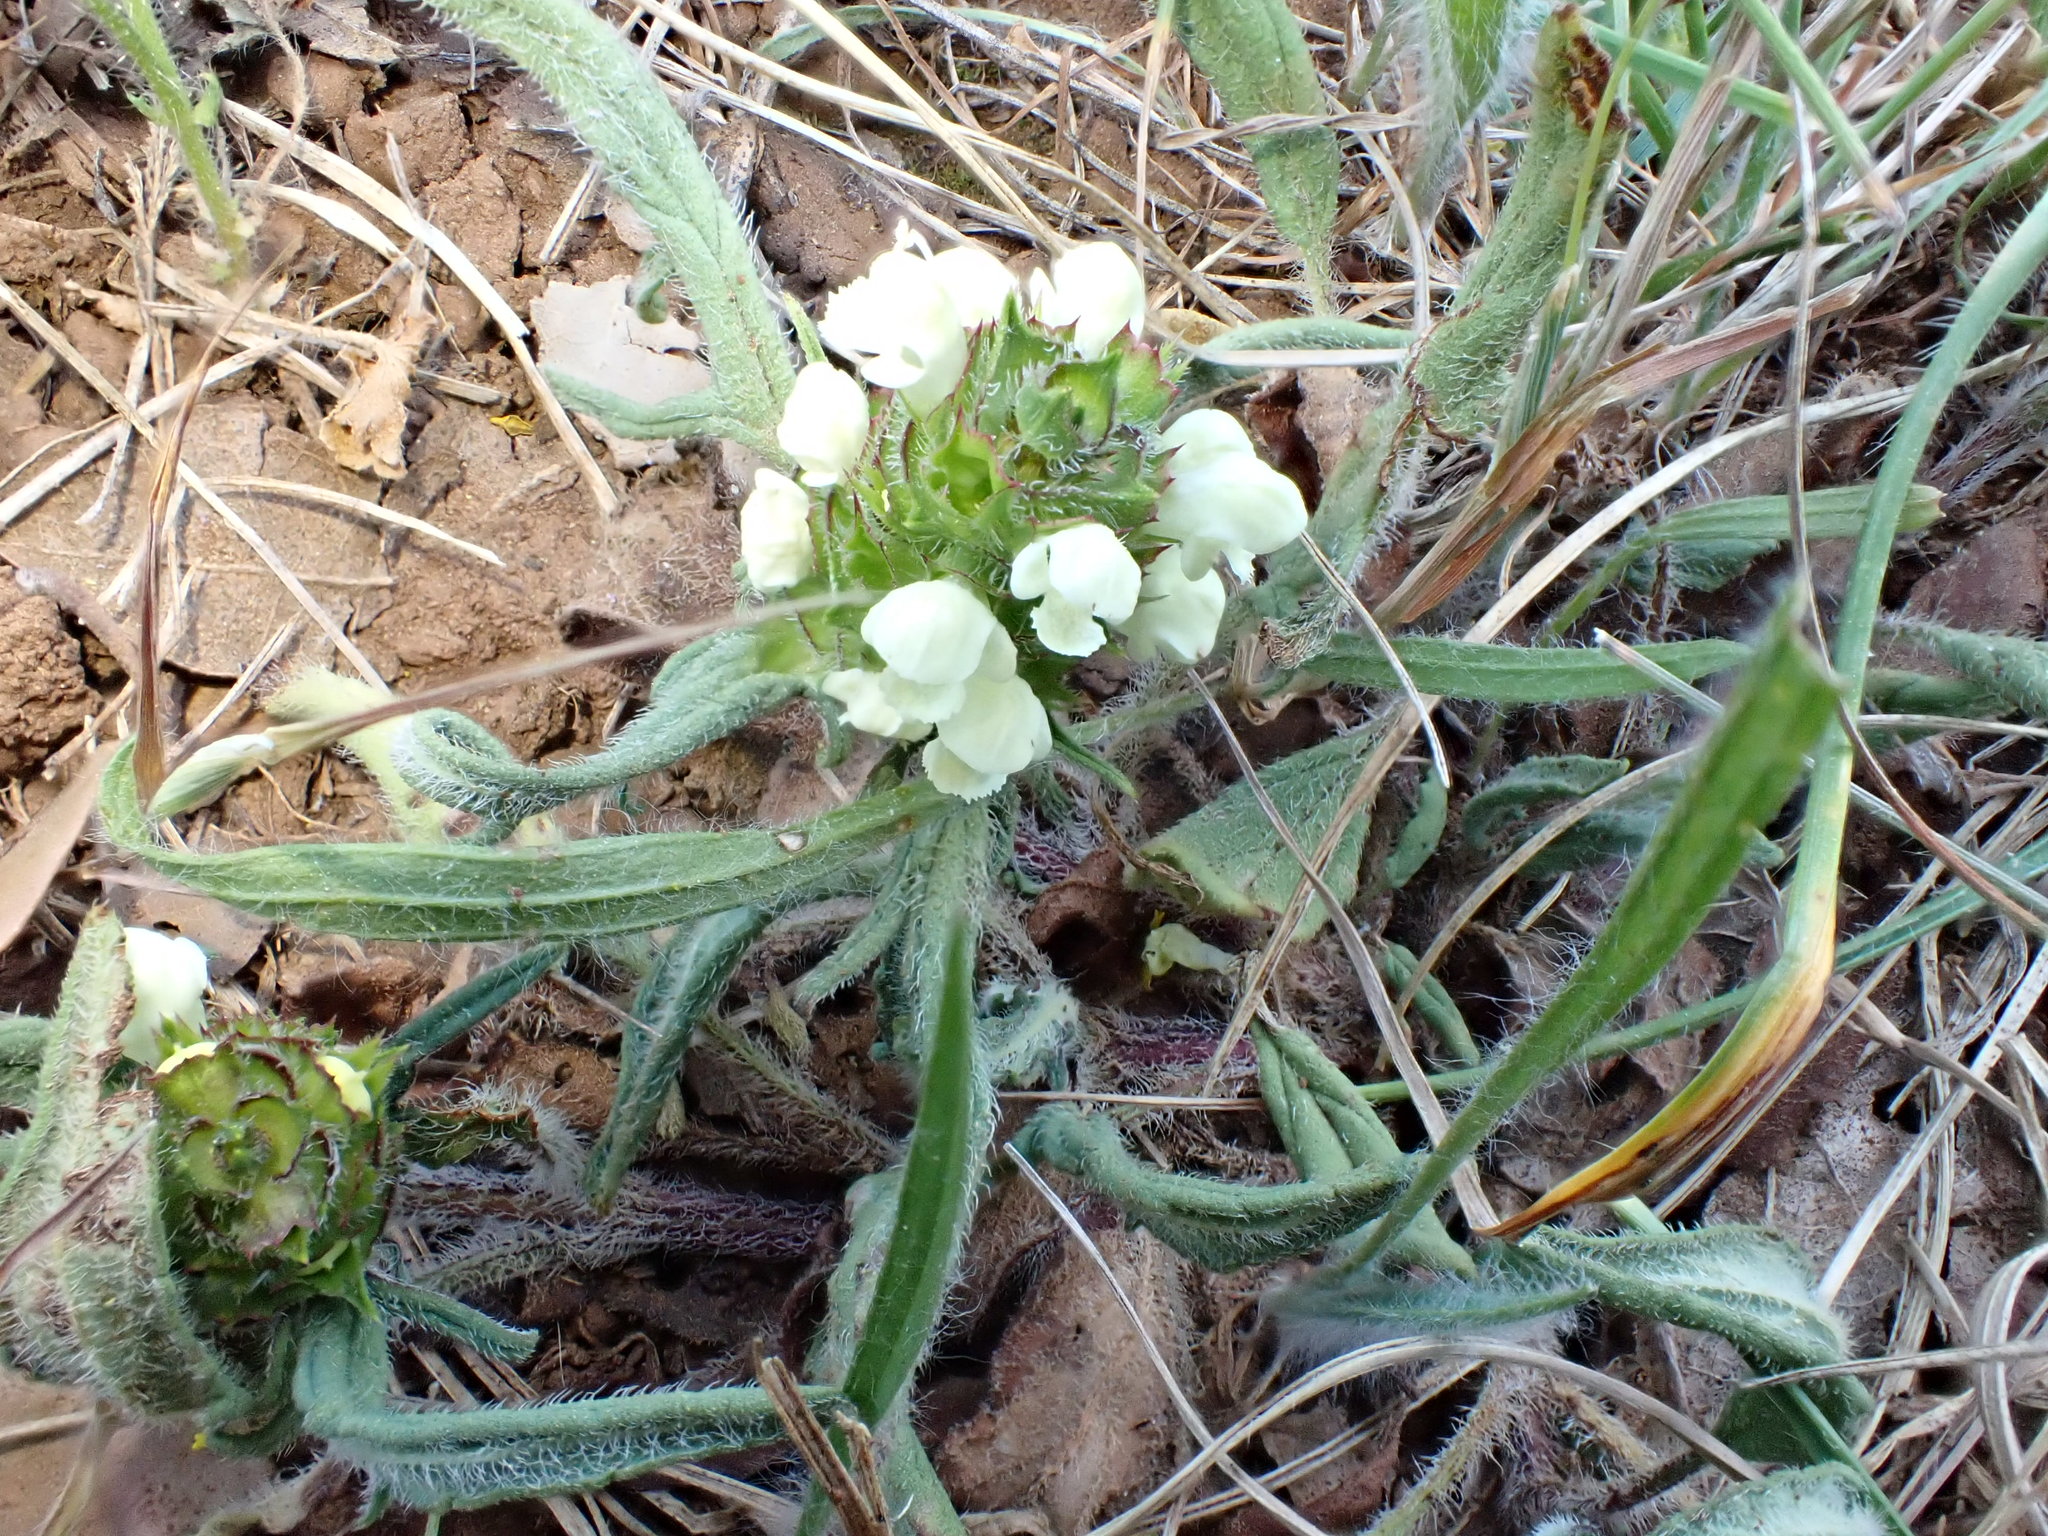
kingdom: Plantae
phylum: Tracheophyta
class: Magnoliopsida
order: Lamiales
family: Lamiaceae
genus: Prunella
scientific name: Prunella laciniata
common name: Cut-leaved selfheal
